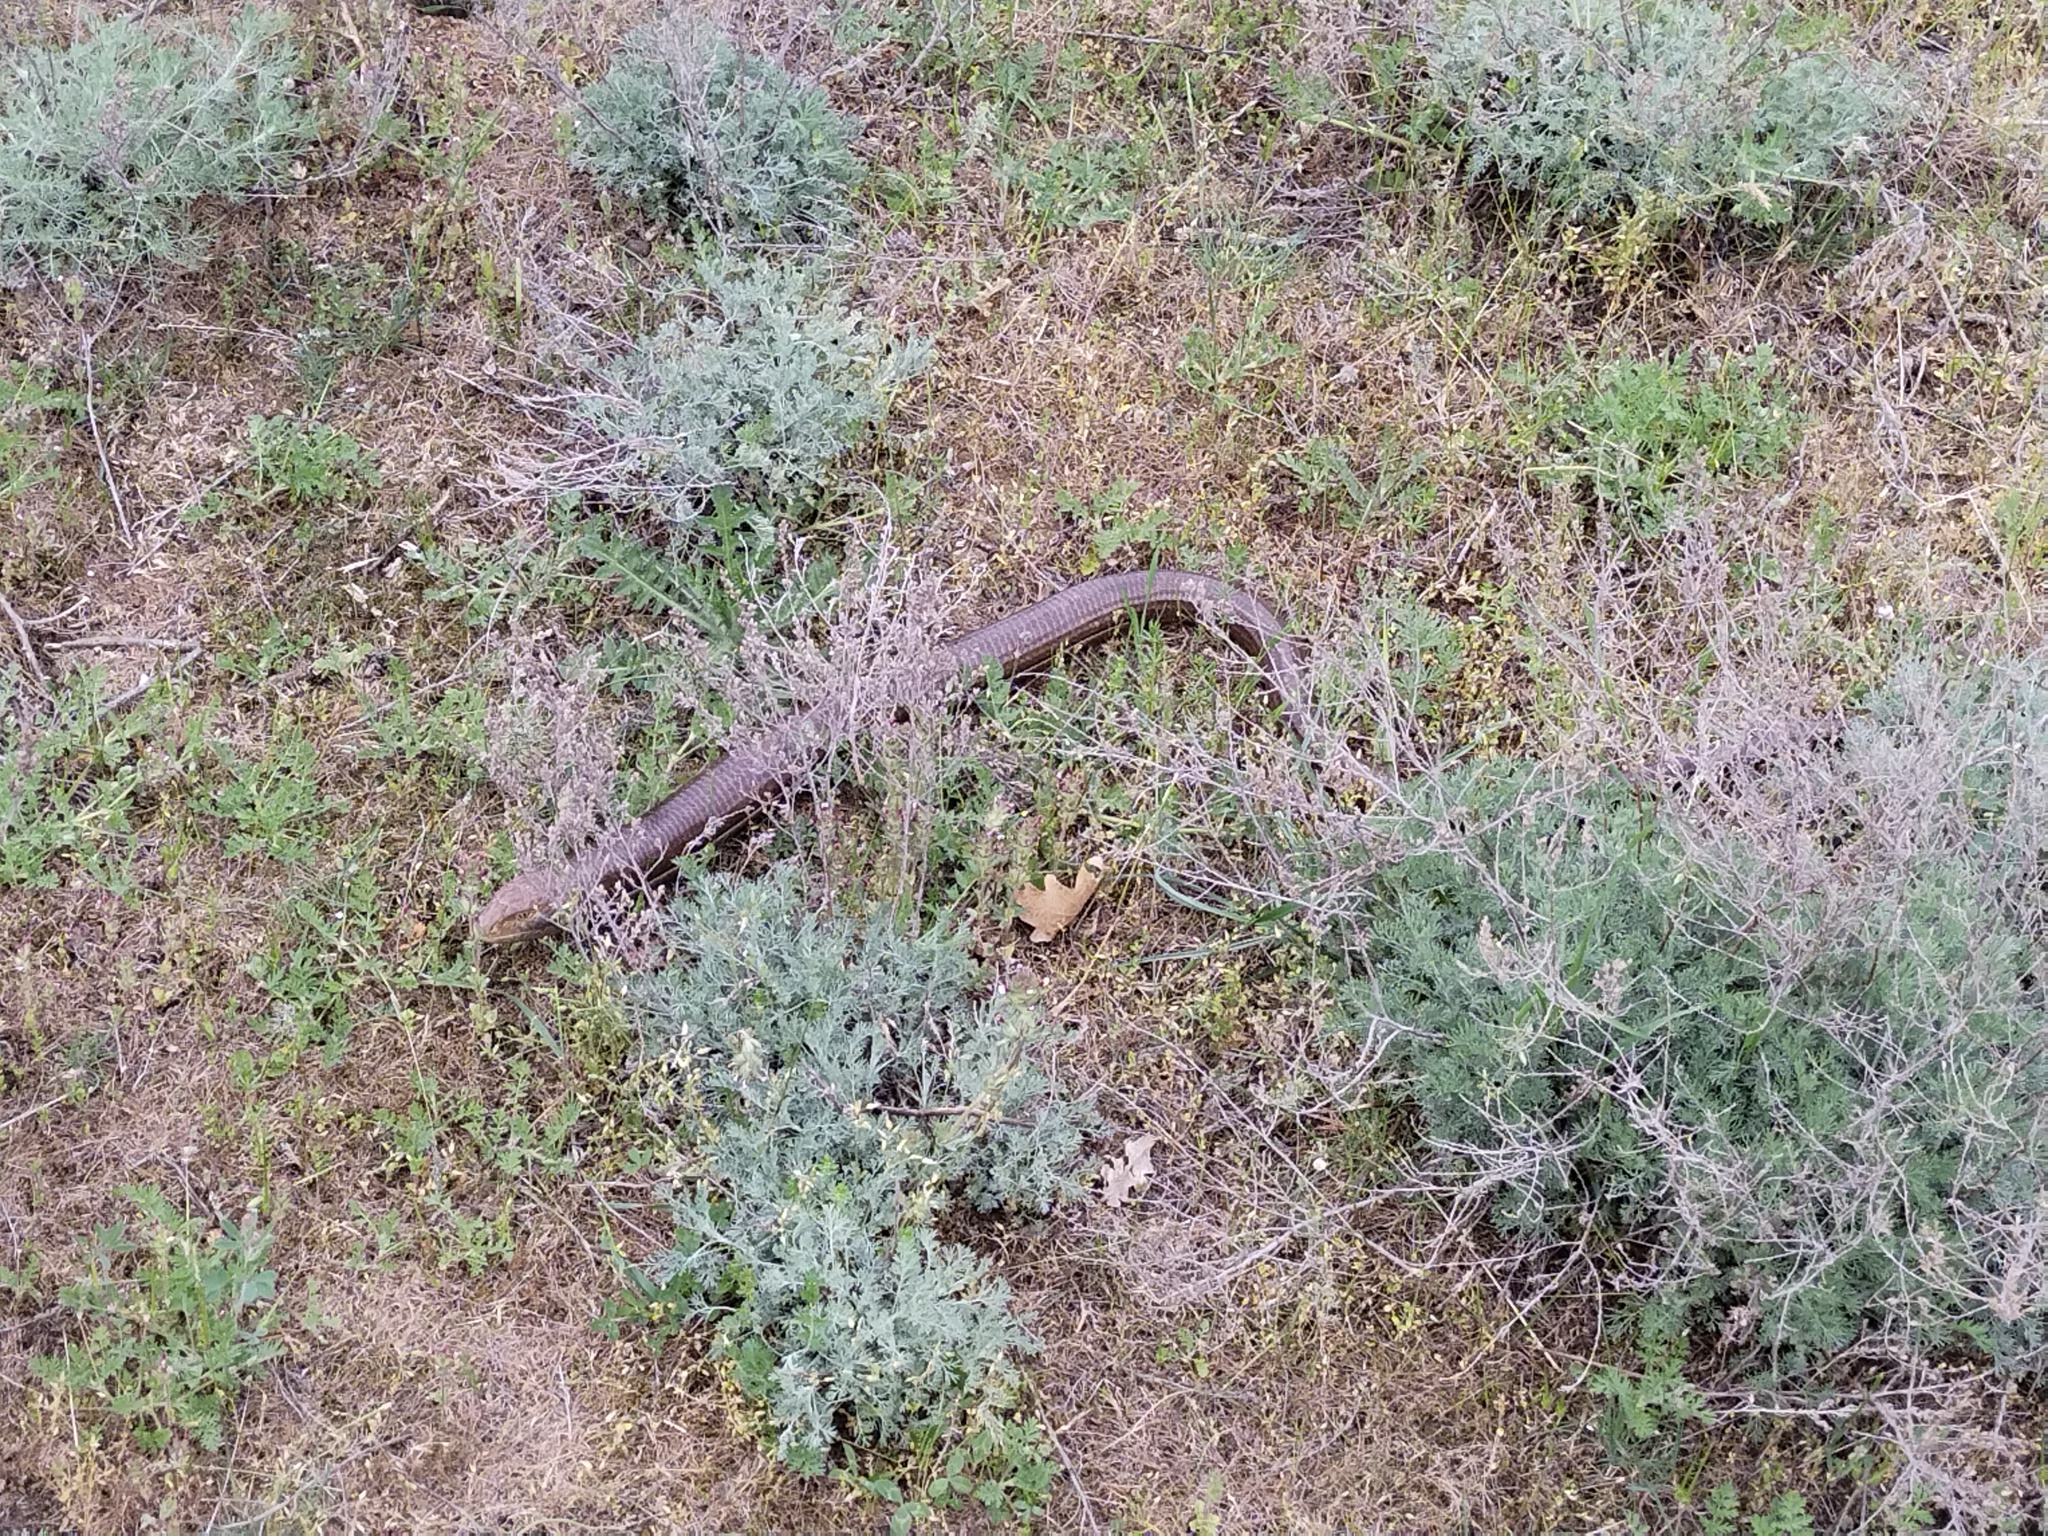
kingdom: Animalia
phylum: Chordata
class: Squamata
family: Anguidae
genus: Pseudopus
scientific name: Pseudopus apodus
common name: European glass lizard
